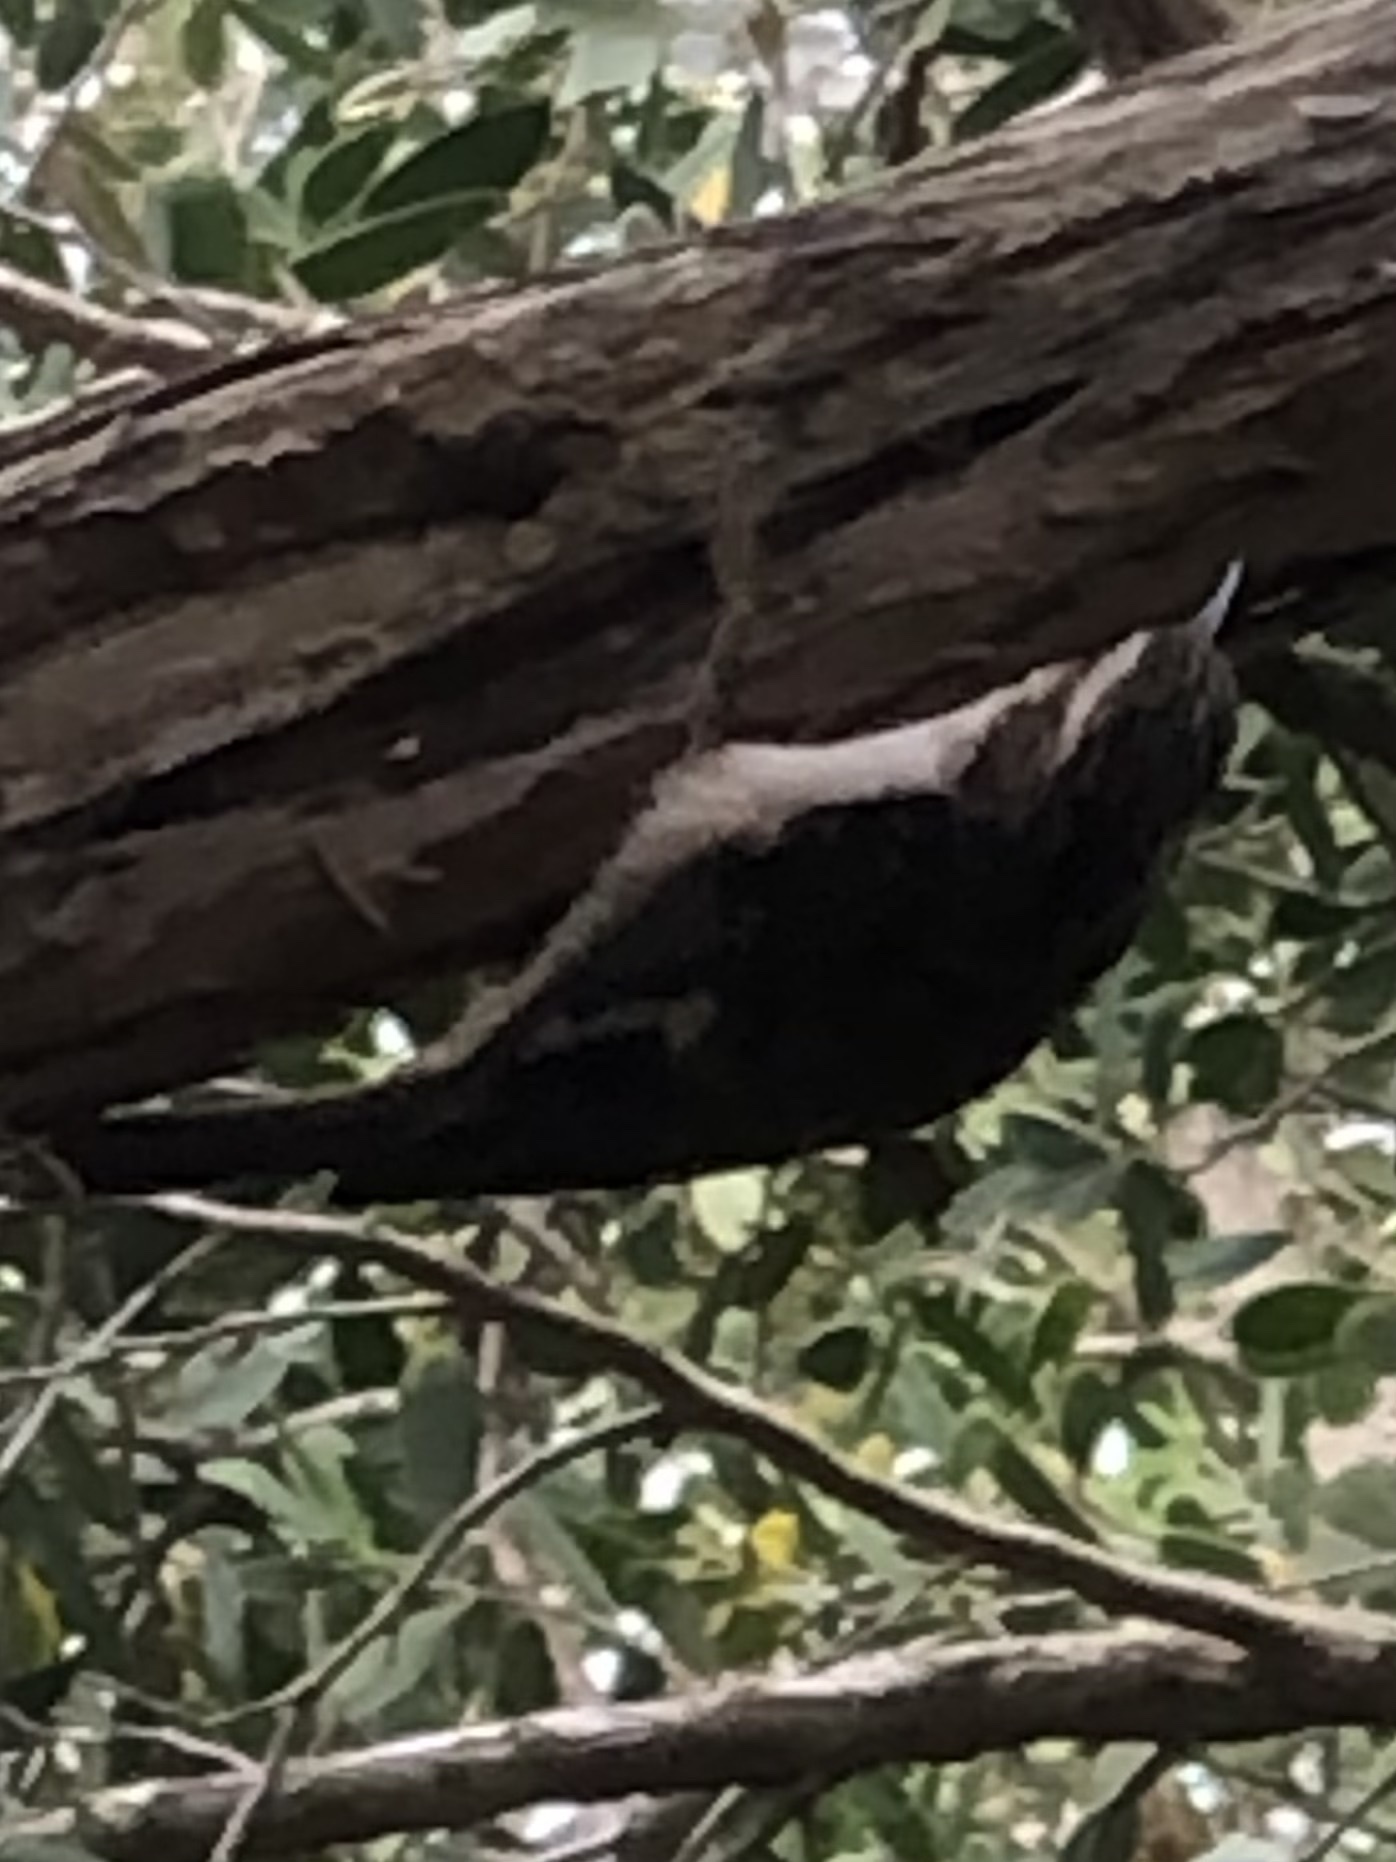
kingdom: Animalia
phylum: Chordata
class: Aves
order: Passeriformes
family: Certhiidae
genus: Certhia
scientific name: Certhia americana
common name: Brown creeper
